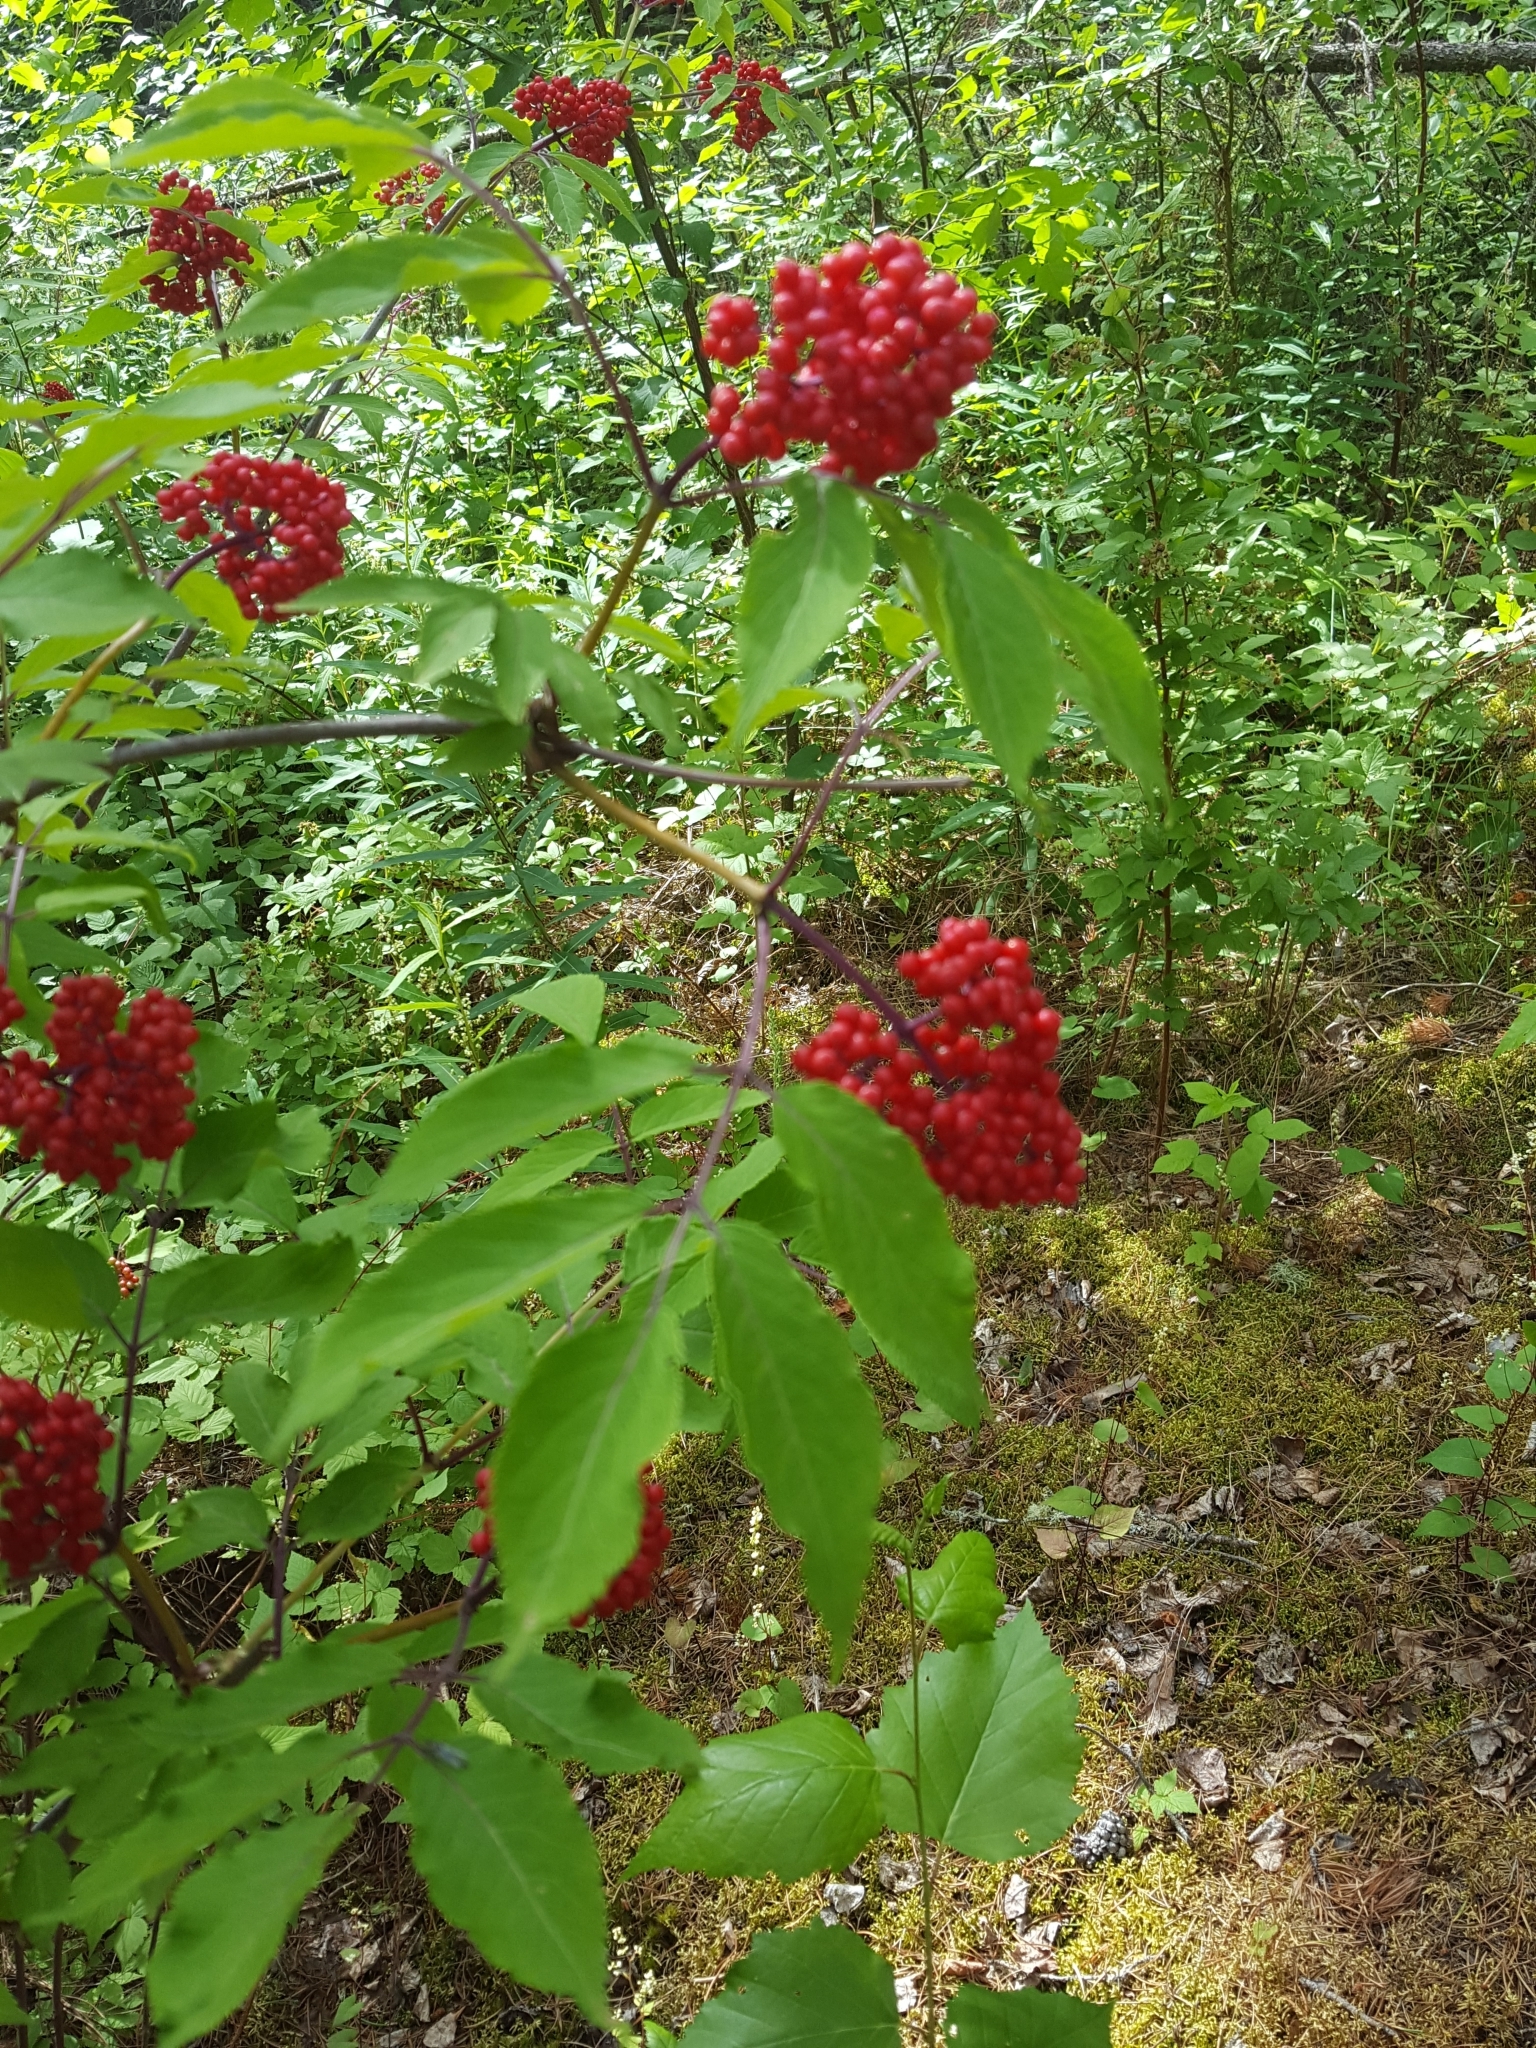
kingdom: Plantae
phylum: Tracheophyta
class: Magnoliopsida
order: Dipsacales
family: Viburnaceae
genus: Sambucus
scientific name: Sambucus racemosa
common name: Red-berried elder
